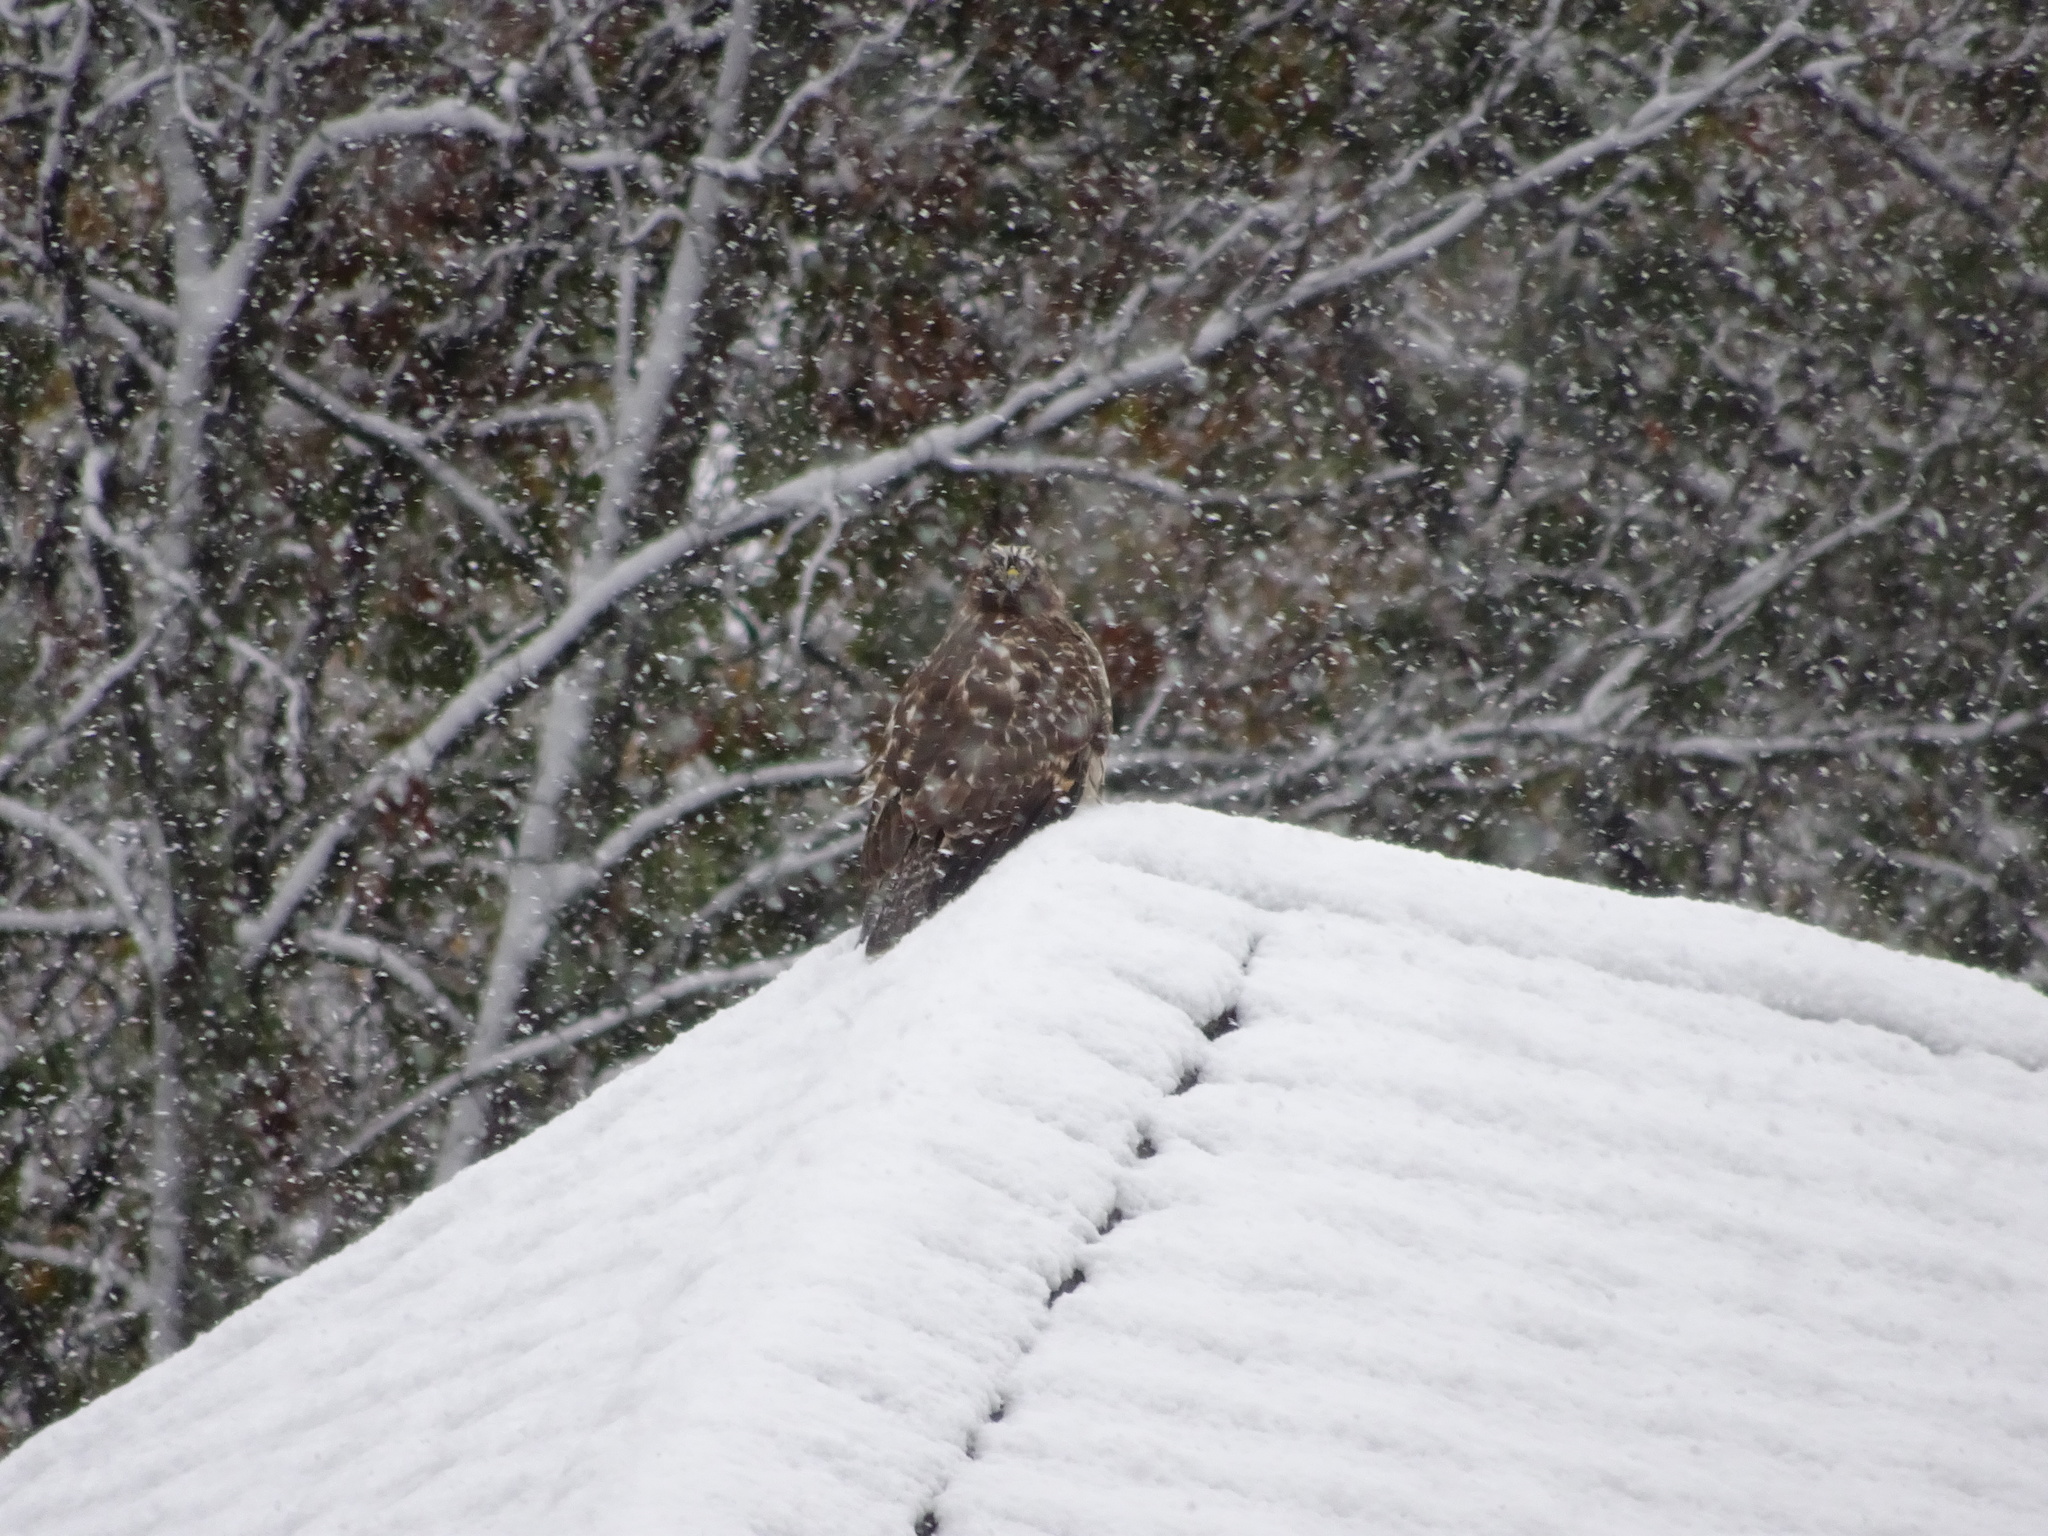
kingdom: Animalia
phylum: Chordata
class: Aves
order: Accipitriformes
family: Accipitridae
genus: Buteo
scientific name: Buteo lineatus
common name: Red-shouldered hawk
